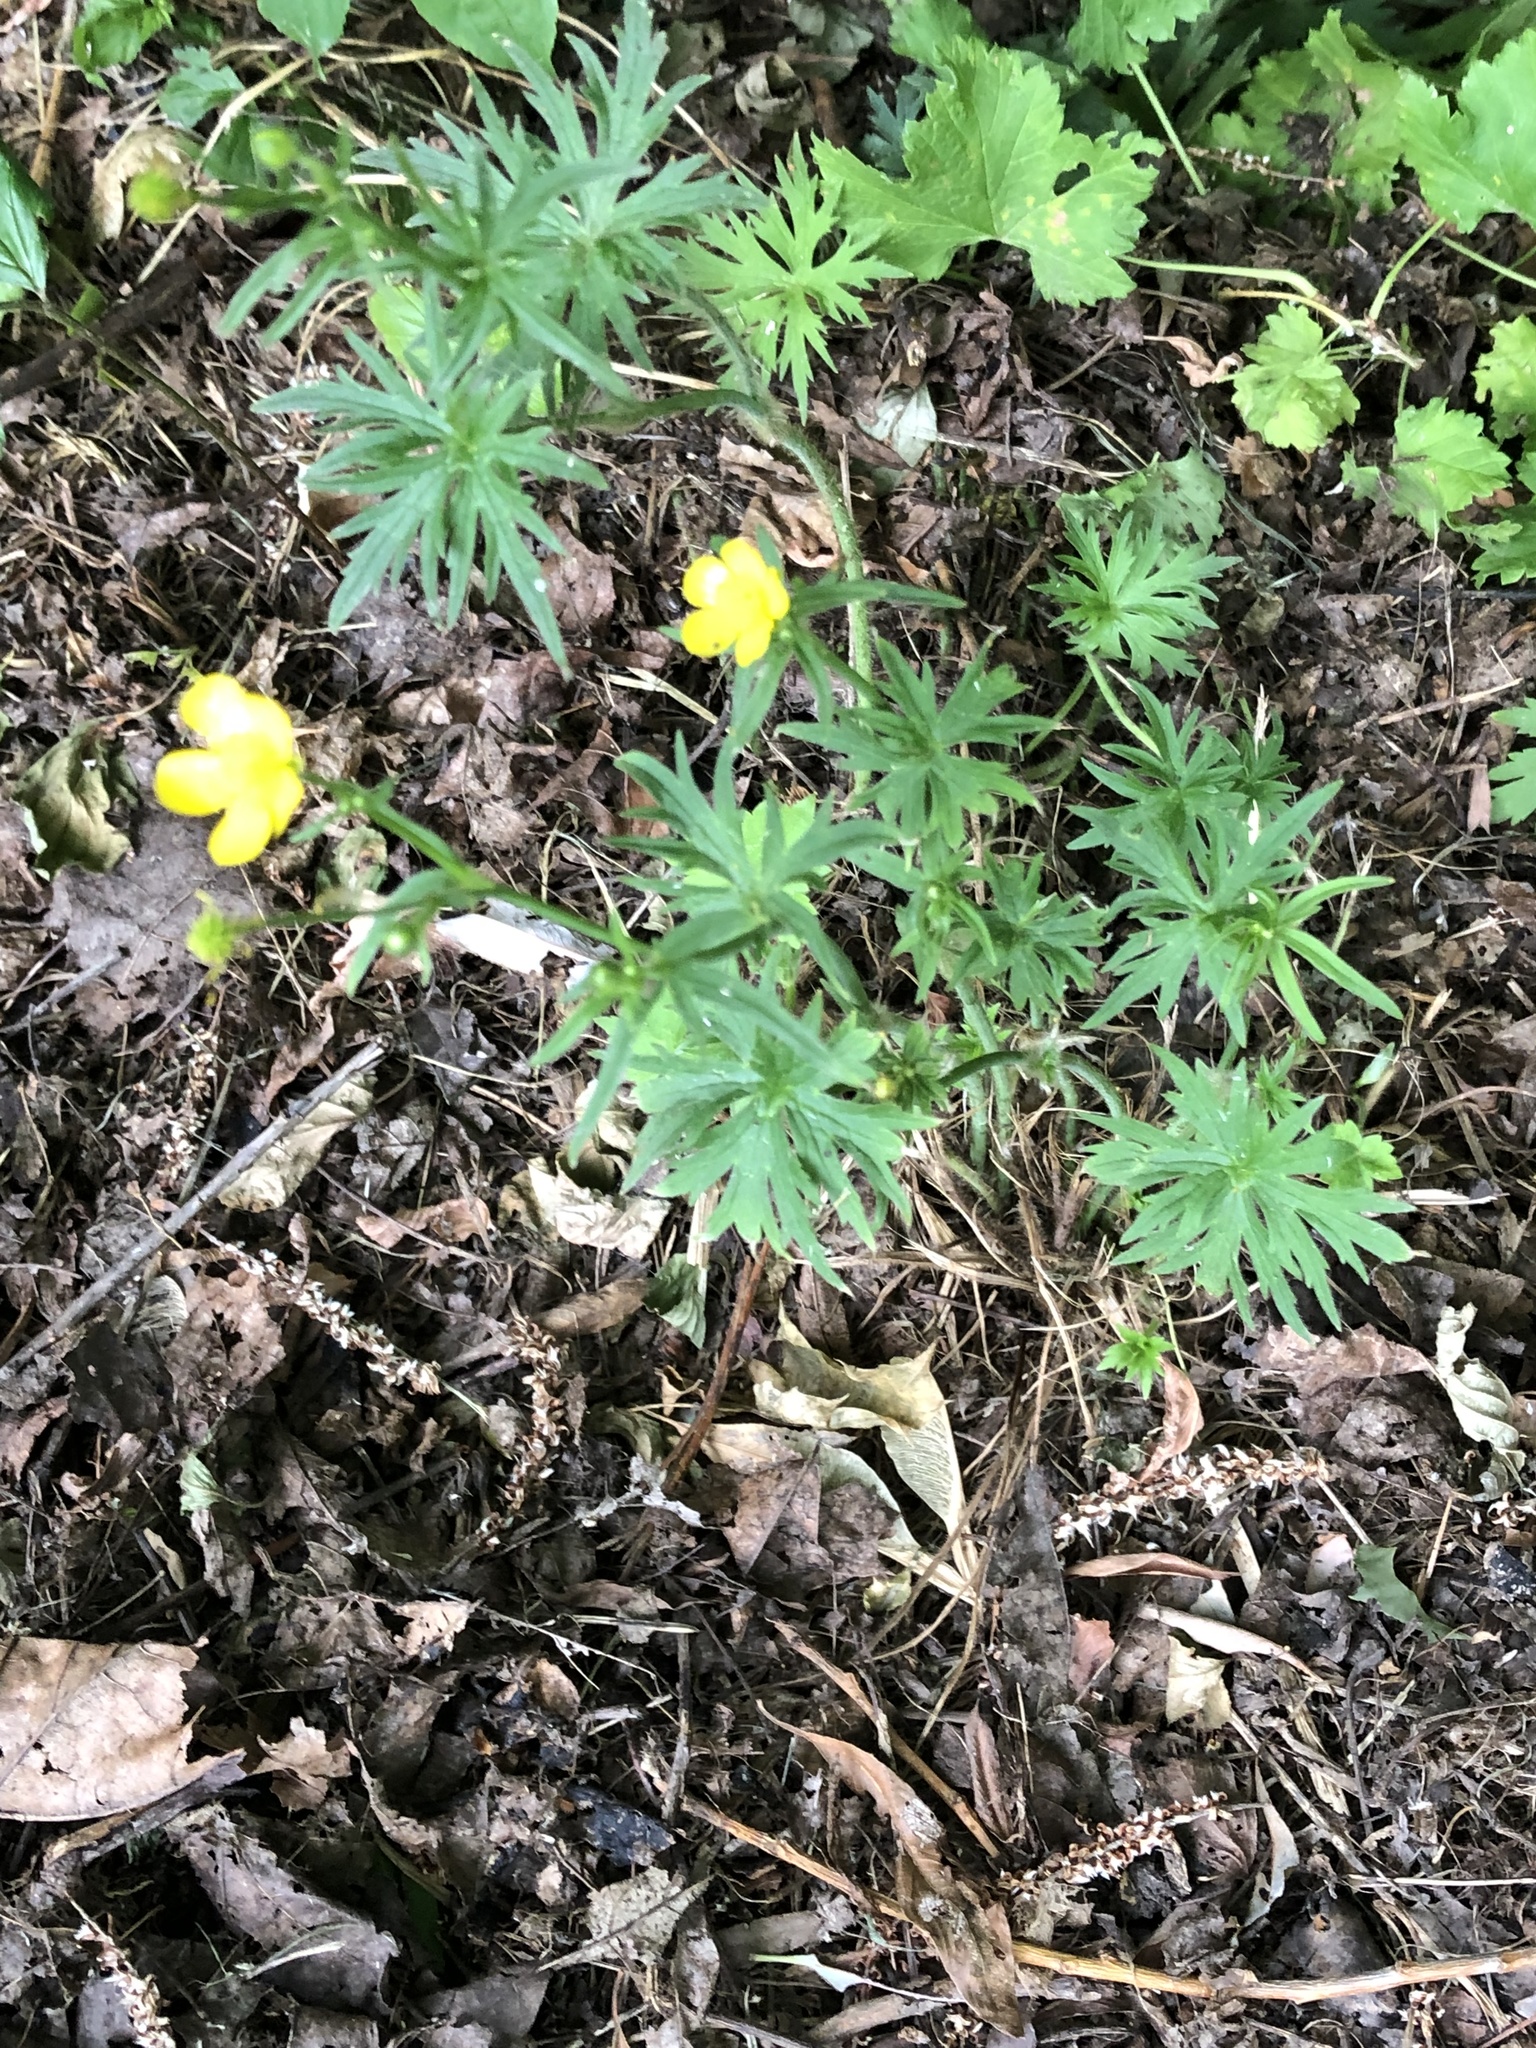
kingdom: Plantae
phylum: Tracheophyta
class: Magnoliopsida
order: Ranunculales
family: Ranunculaceae
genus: Ranunculus
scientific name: Ranunculus acris
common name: Meadow buttercup
